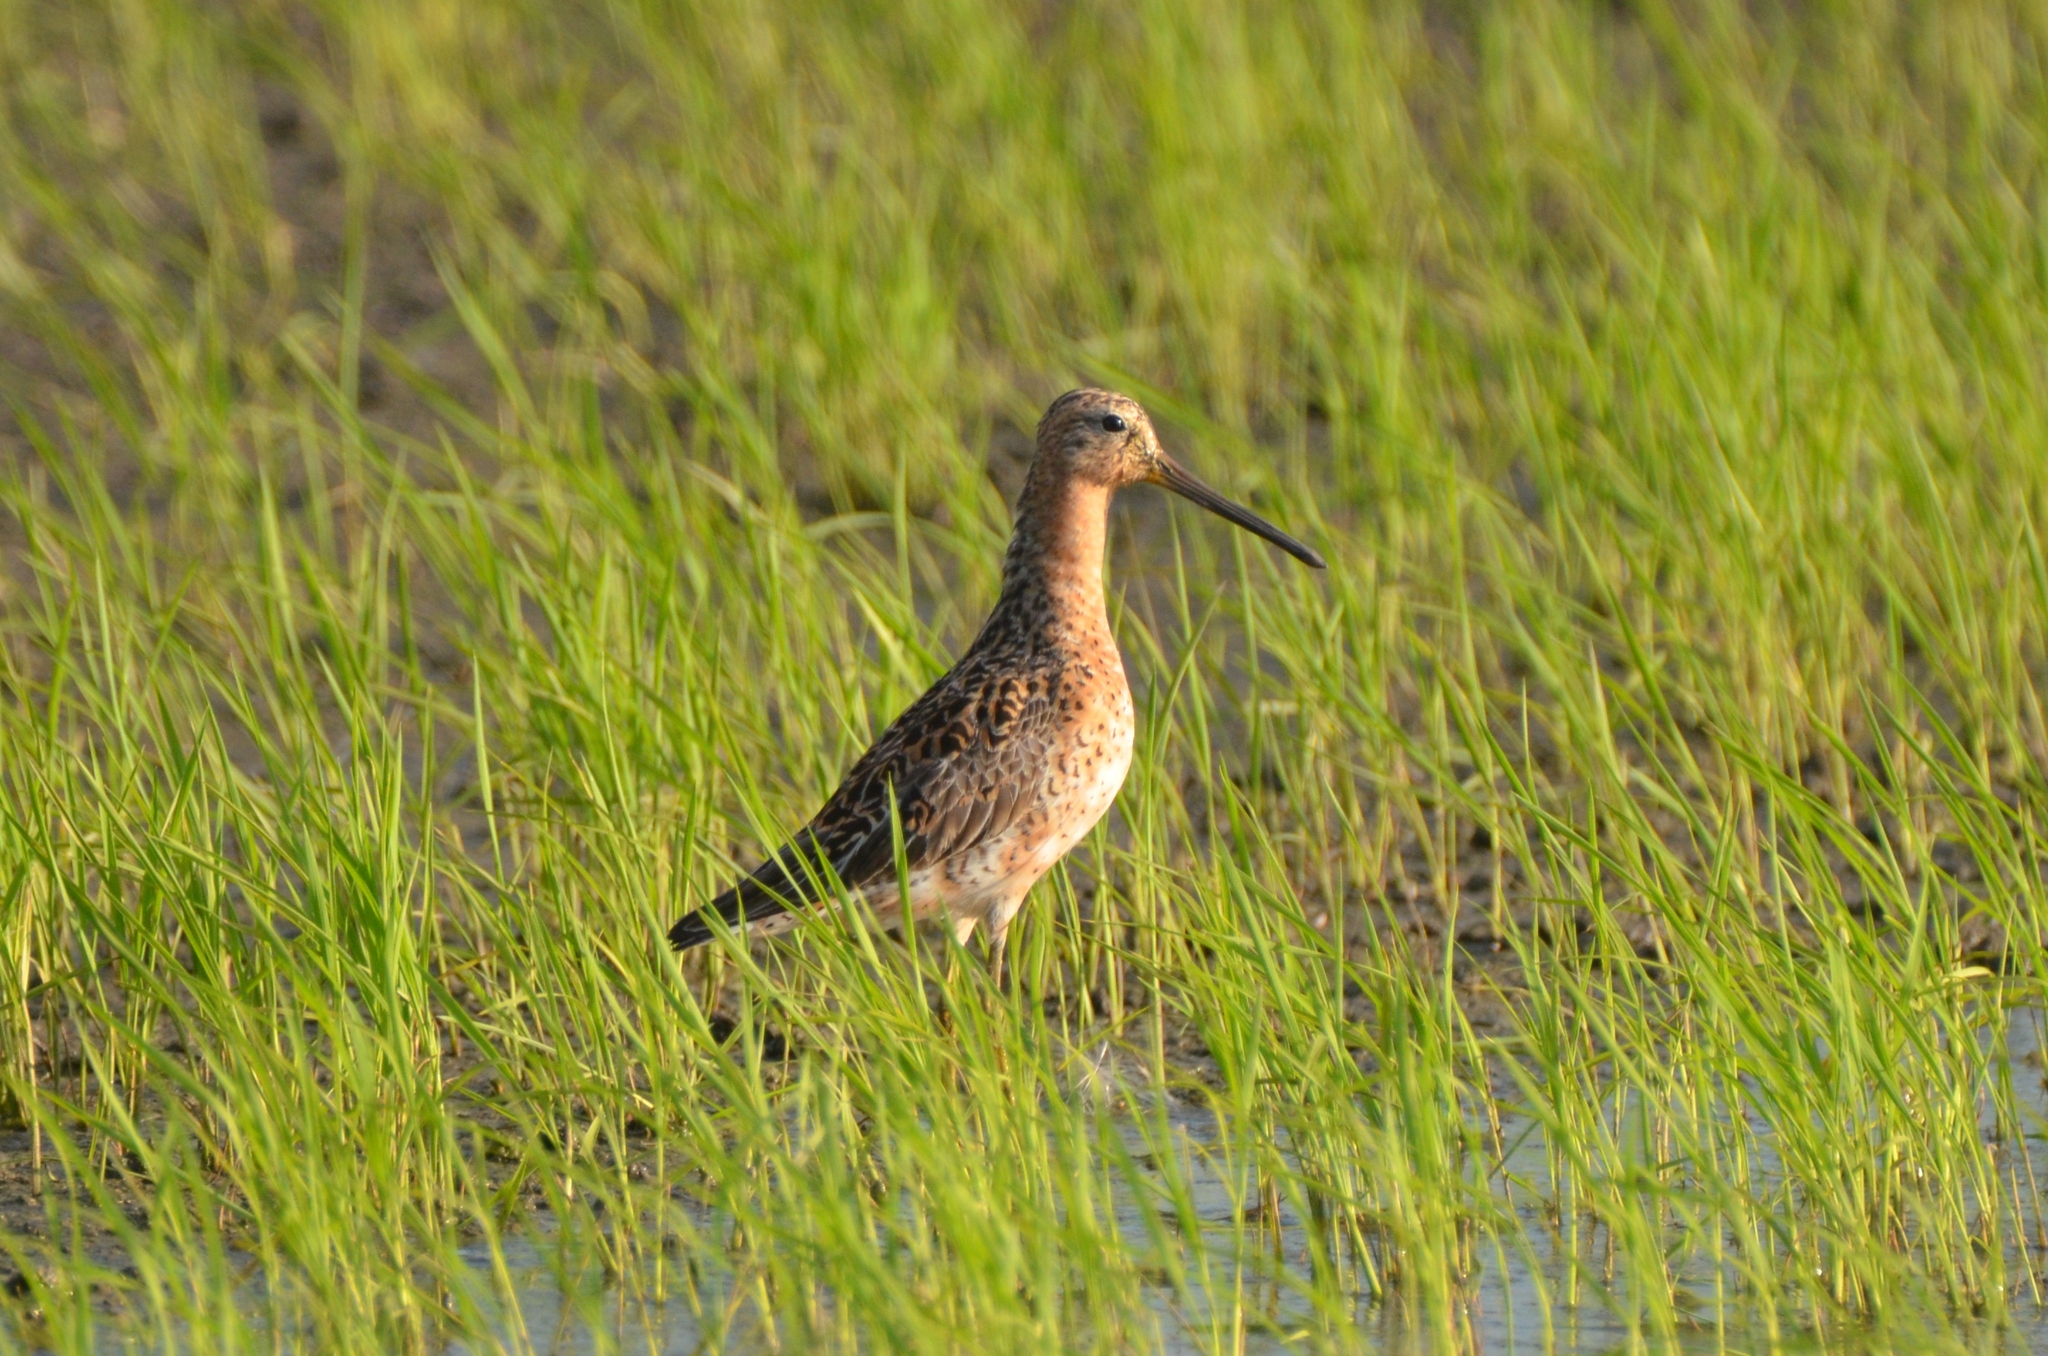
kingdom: Animalia
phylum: Chordata
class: Aves
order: Charadriiformes
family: Scolopacidae
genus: Limnodromus
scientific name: Limnodromus griseus
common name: Short-billed dowitcher
